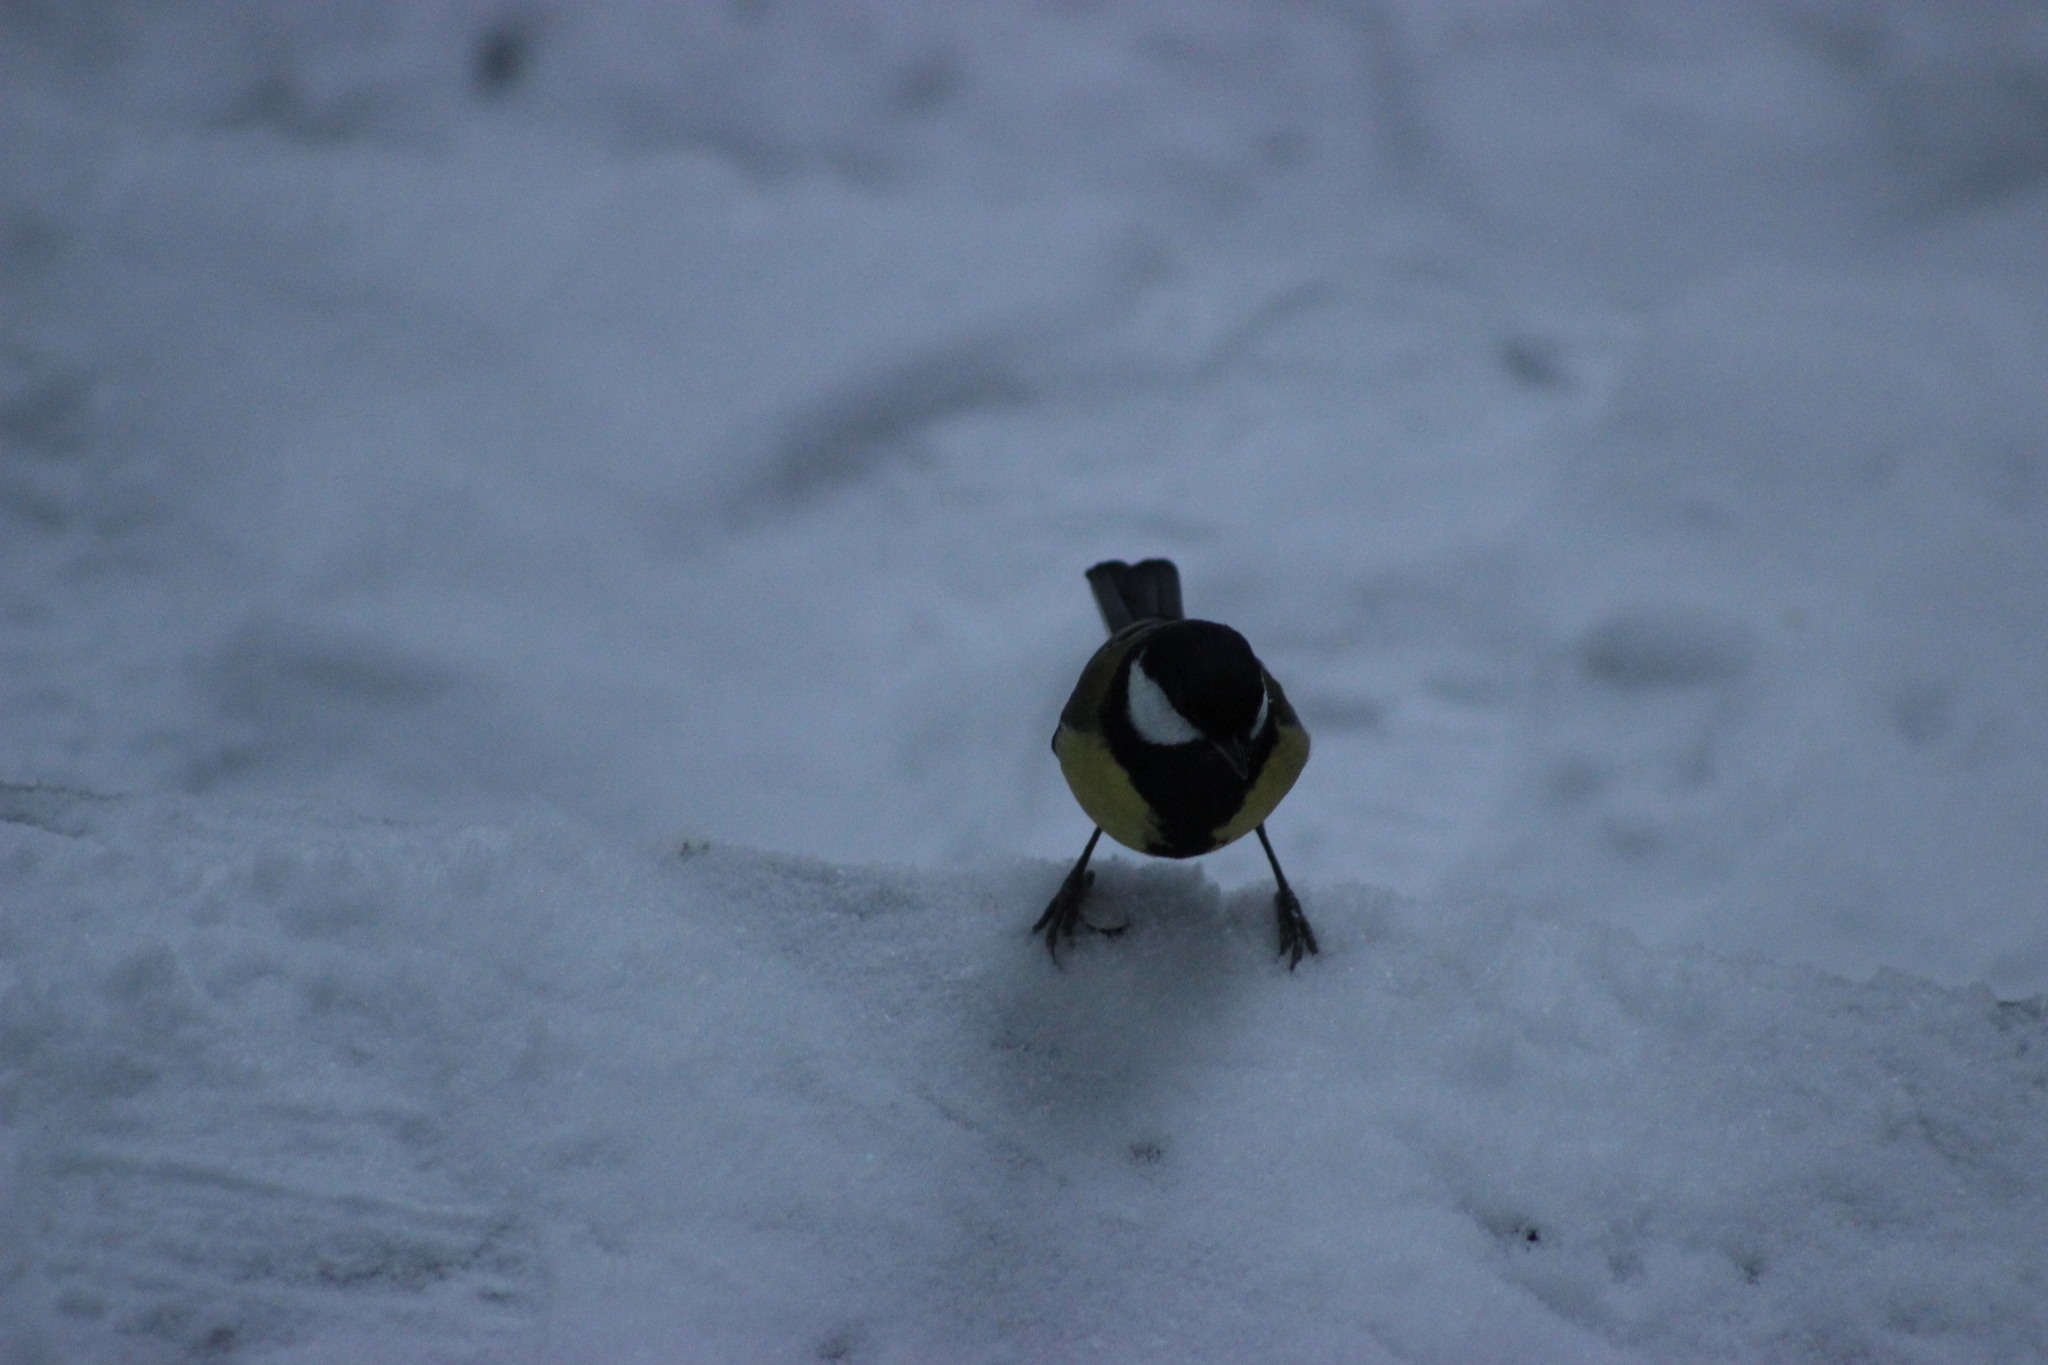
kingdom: Animalia
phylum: Chordata
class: Aves
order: Passeriformes
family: Paridae
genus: Parus
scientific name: Parus major
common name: Great tit
